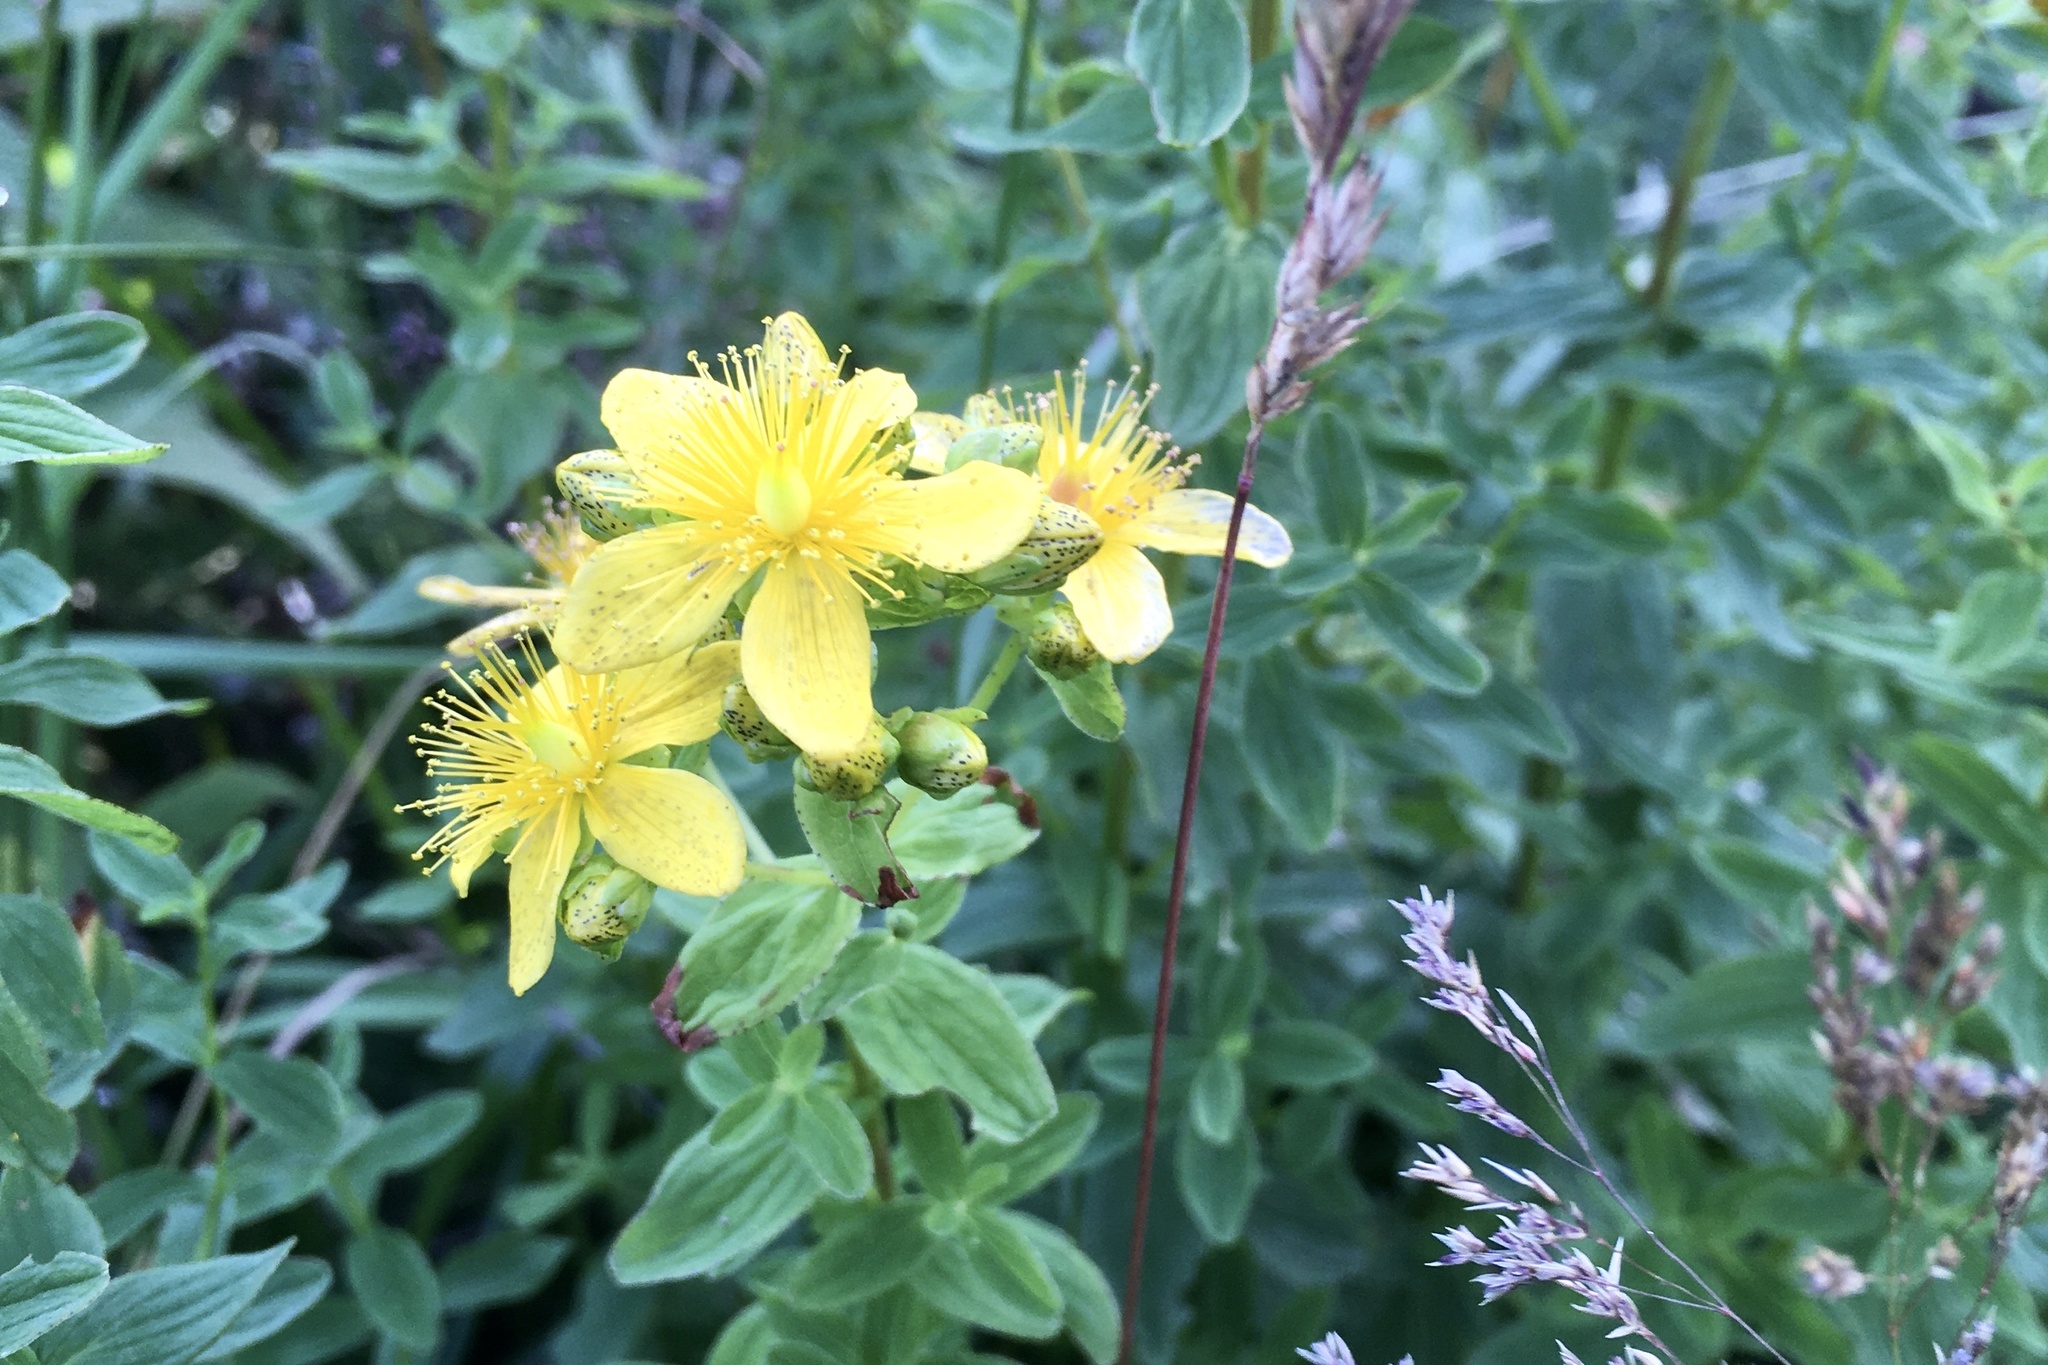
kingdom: Plantae
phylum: Tracheophyta
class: Magnoliopsida
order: Malpighiales
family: Hypericaceae
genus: Hypericum
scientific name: Hypericum maculatum
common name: Imperforate st. john's-wort
